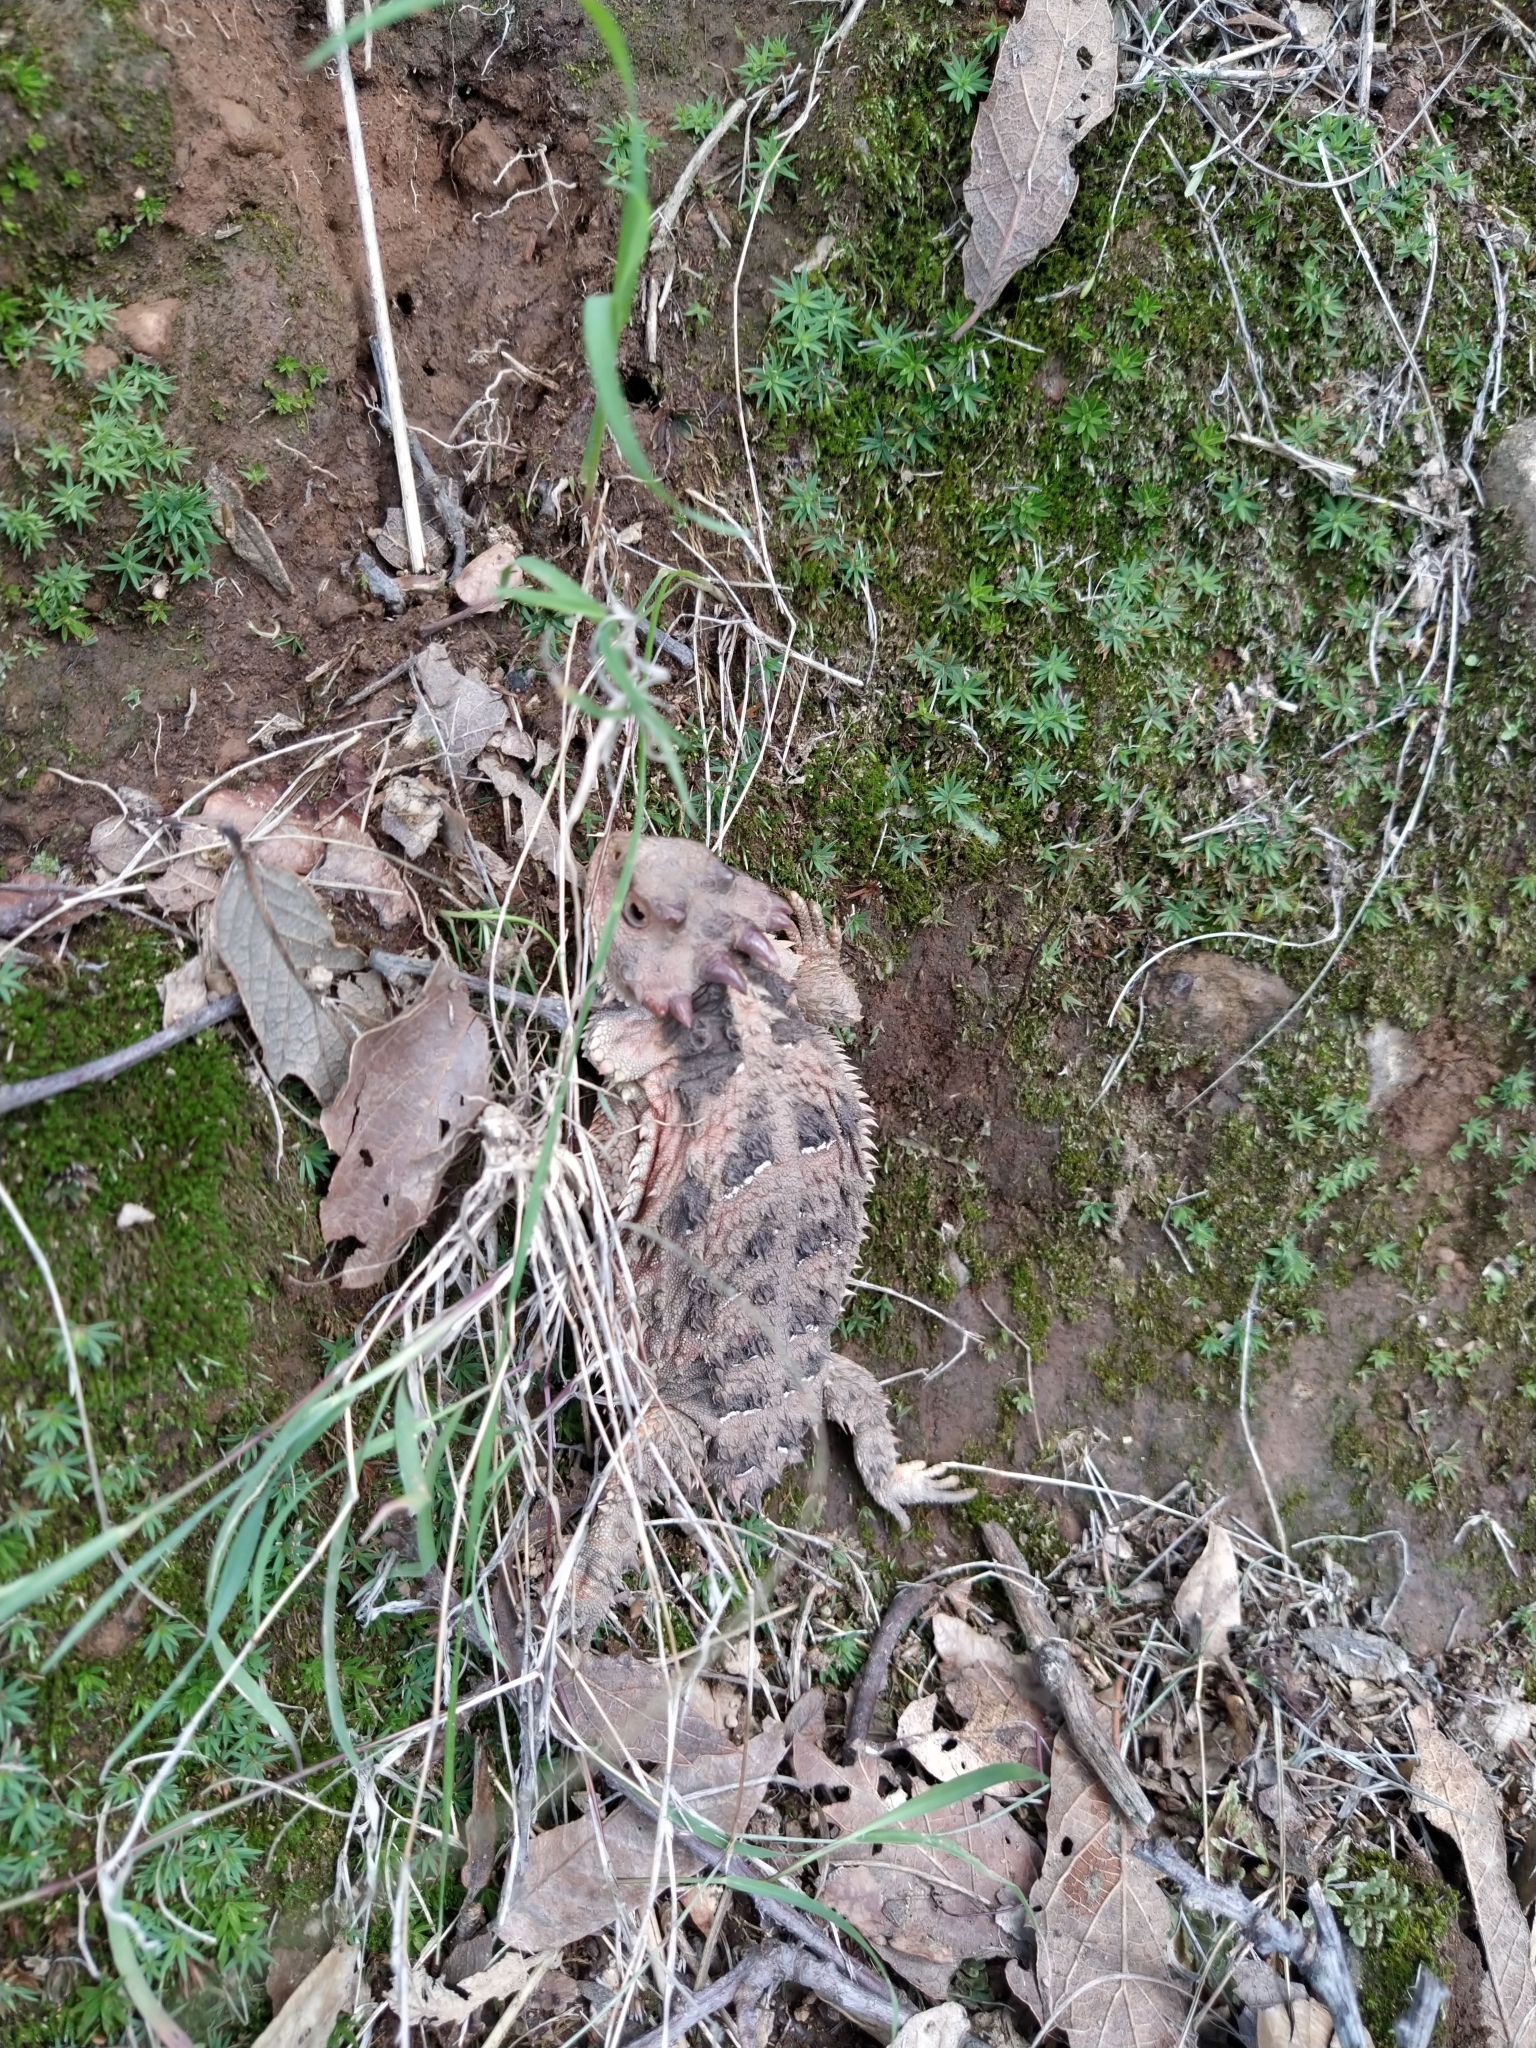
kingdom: Animalia
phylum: Chordata
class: Squamata
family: Phrynosomatidae
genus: Phrynosoma
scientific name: Phrynosoma orbiculare
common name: Mountain horned lizard
